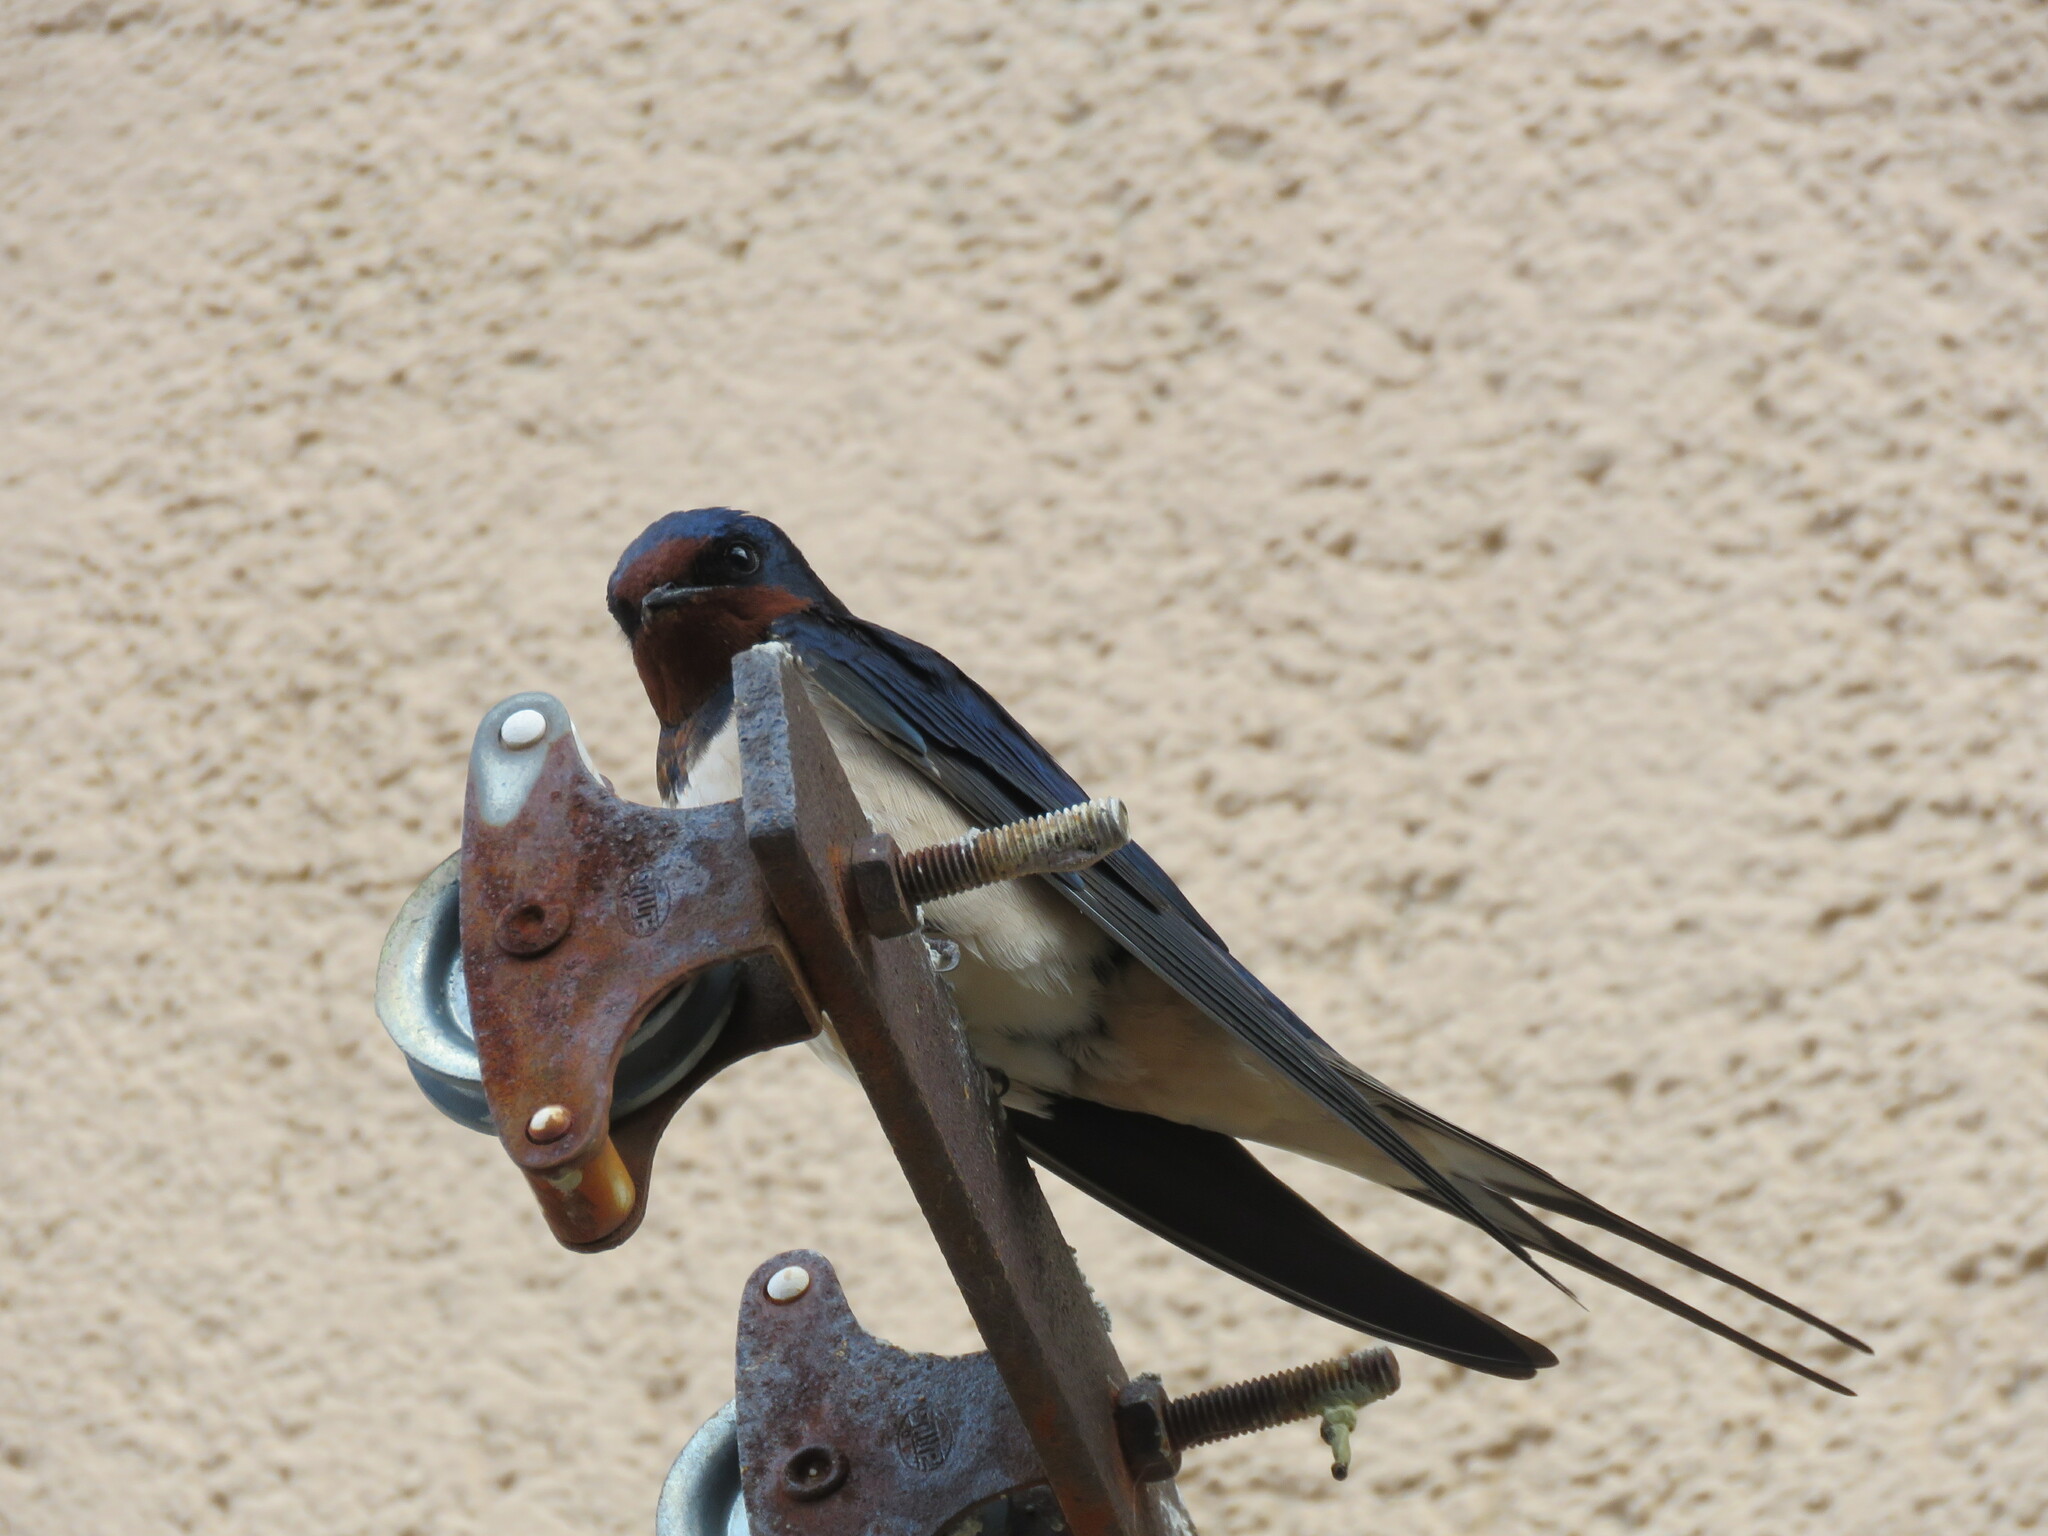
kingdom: Animalia
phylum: Chordata
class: Aves
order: Passeriformes
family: Hirundinidae
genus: Hirundo
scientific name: Hirundo rustica
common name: Barn swallow
